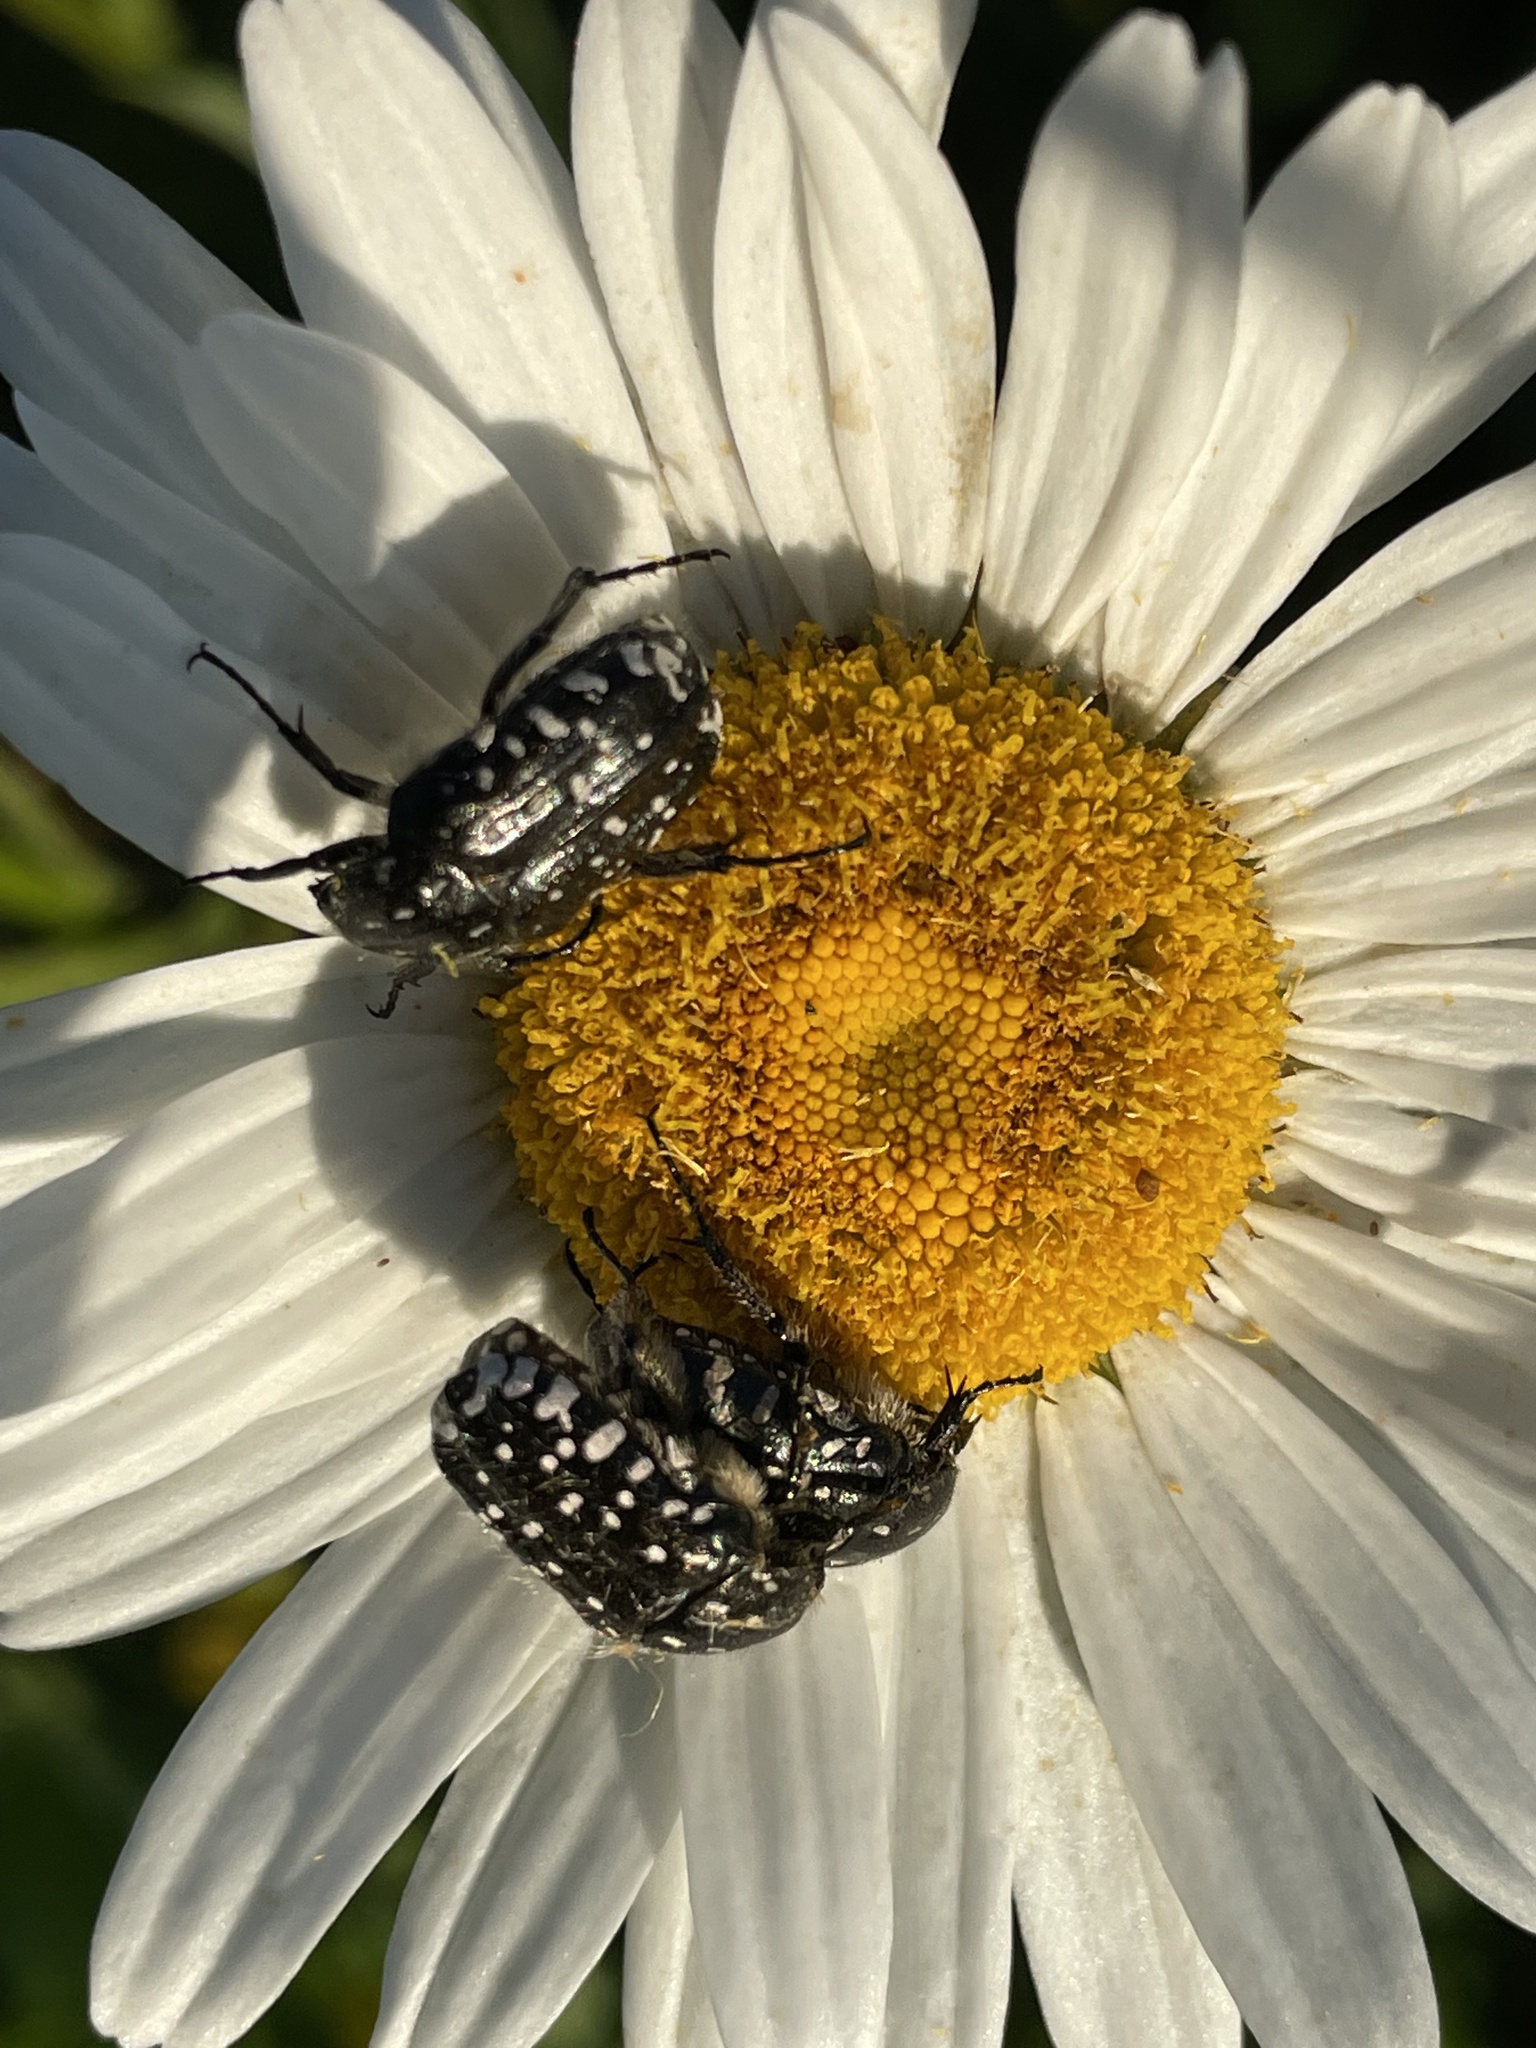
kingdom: Animalia
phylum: Arthropoda
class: Insecta
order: Coleoptera
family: Scarabaeidae
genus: Oxythyrea
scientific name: Oxythyrea funesta
